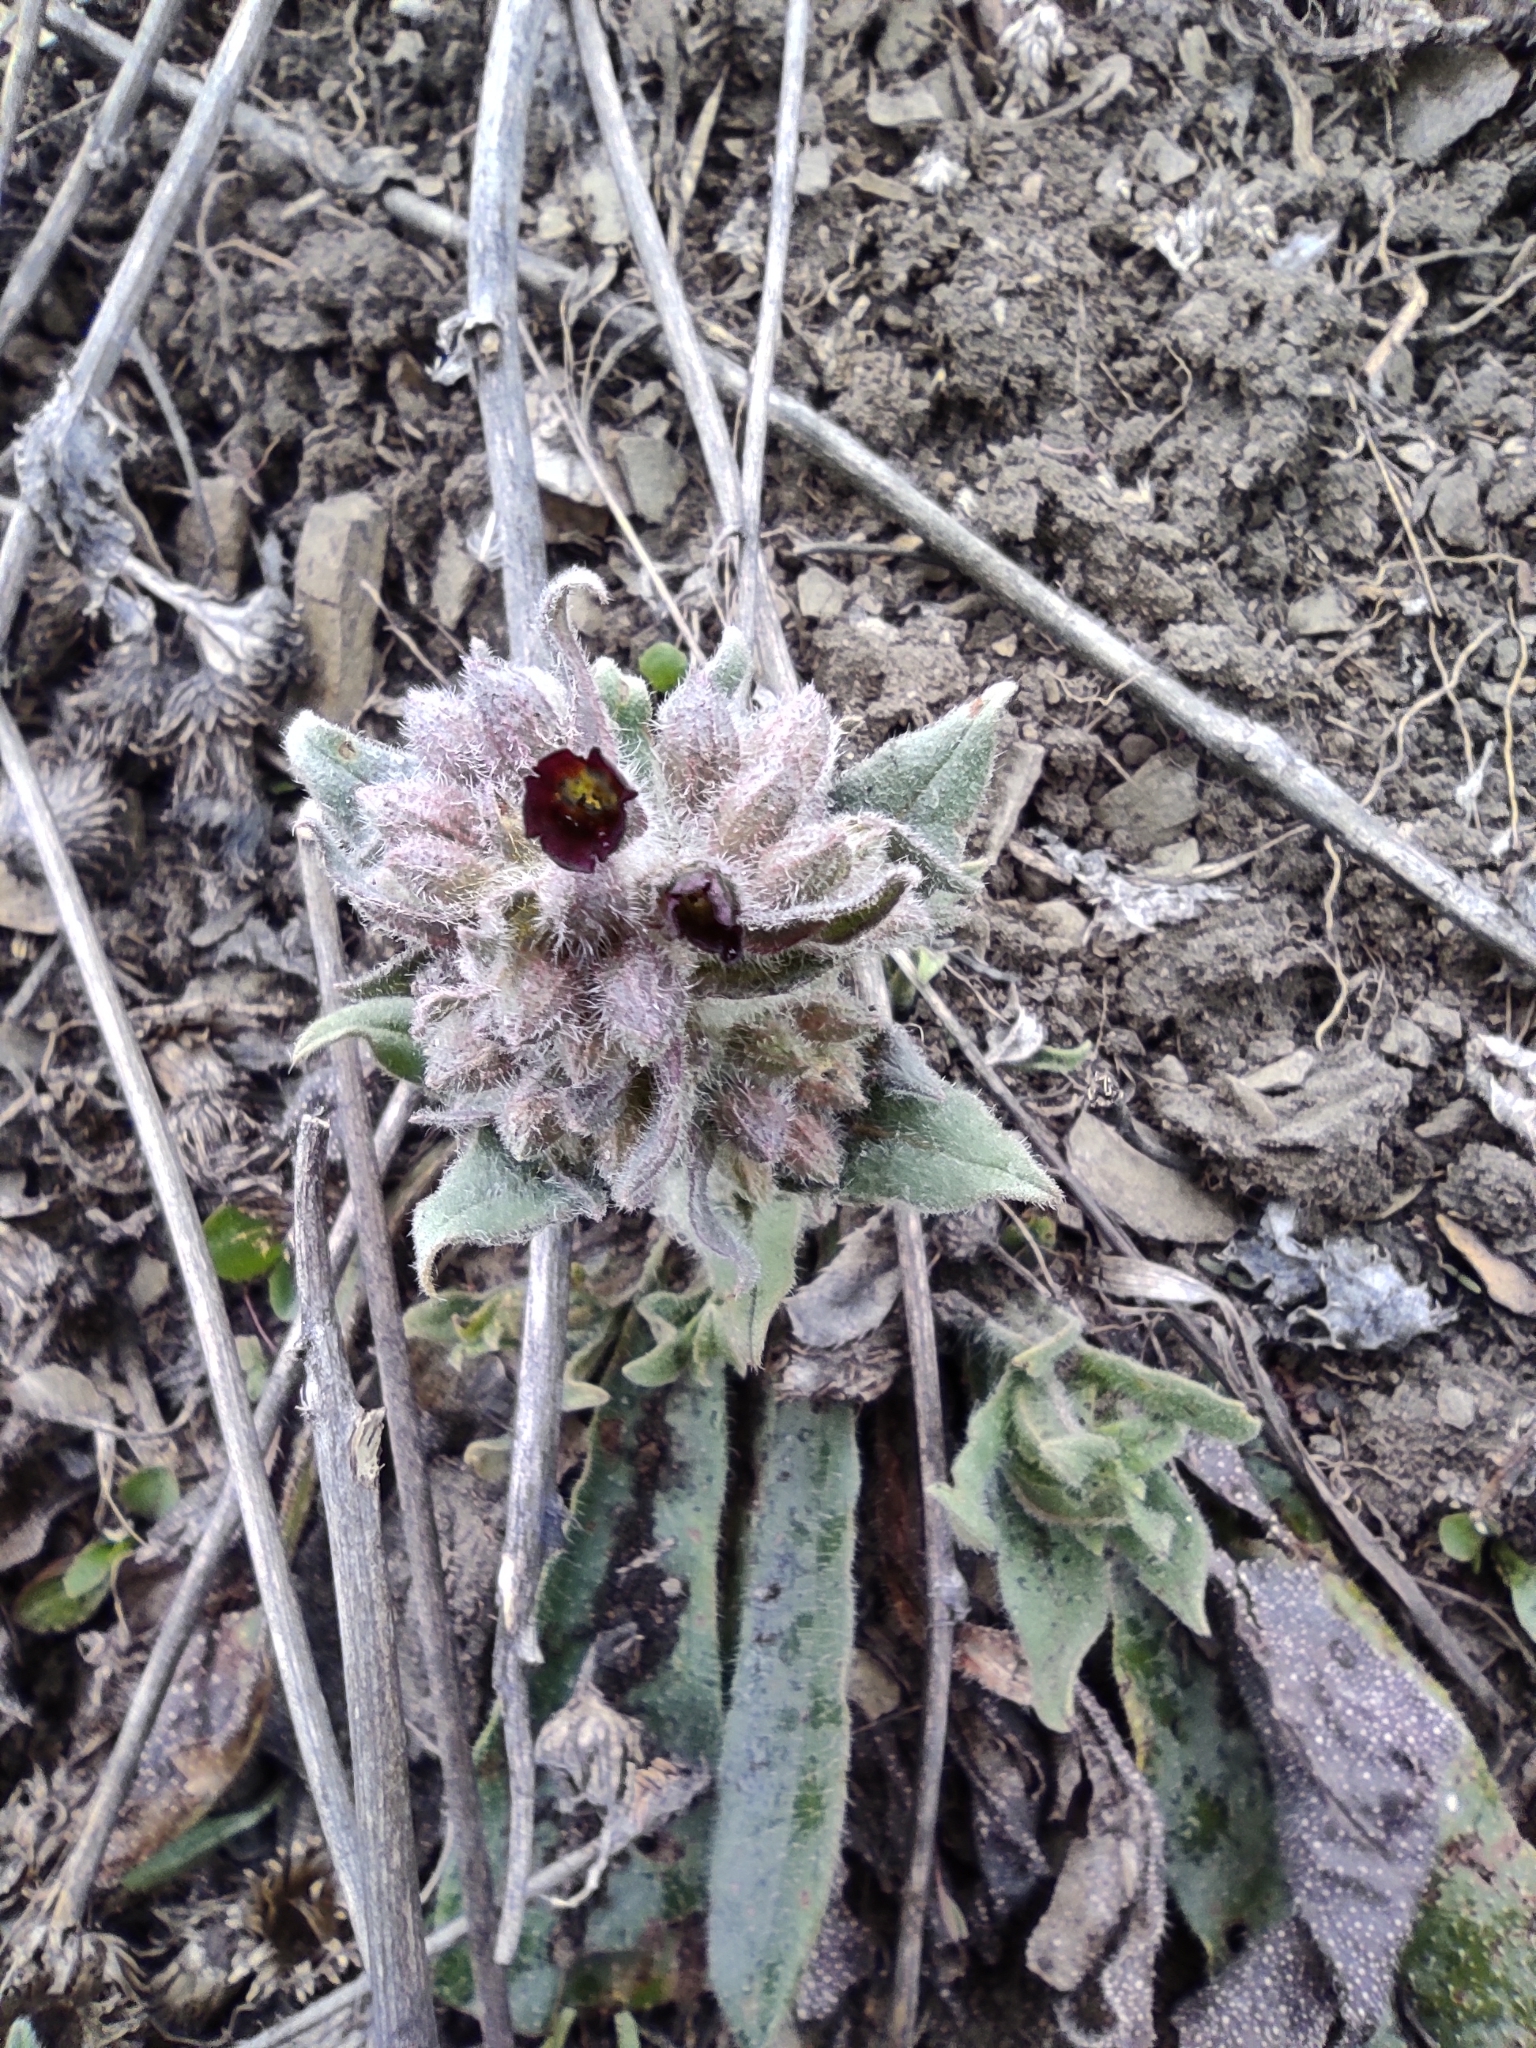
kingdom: Plantae
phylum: Tracheophyta
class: Magnoliopsida
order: Boraginales
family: Boraginaceae
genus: Nonea
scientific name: Nonea pulla
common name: Brown nonea
